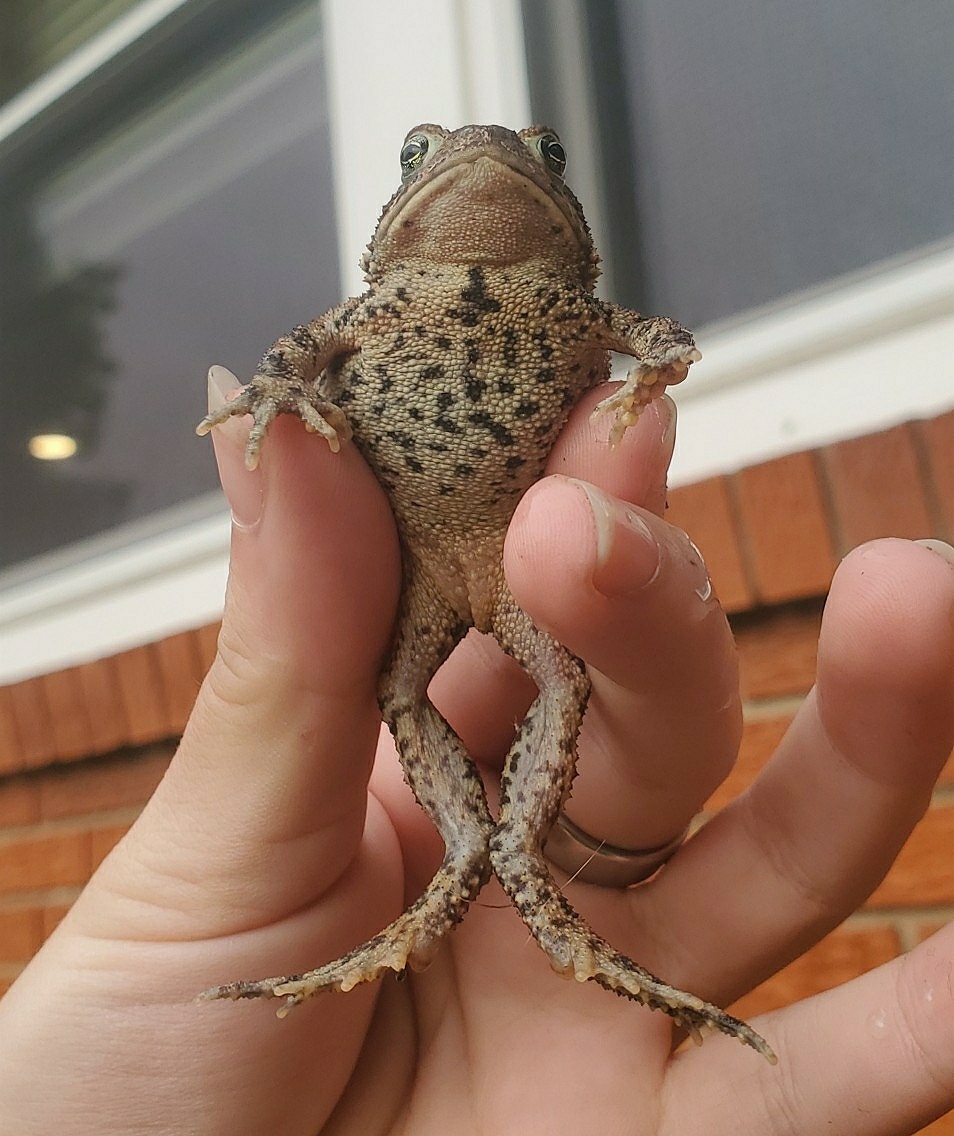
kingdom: Animalia
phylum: Chordata
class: Amphibia
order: Anura
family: Bufonidae
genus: Anaxyrus
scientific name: Anaxyrus americanus
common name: American toad
